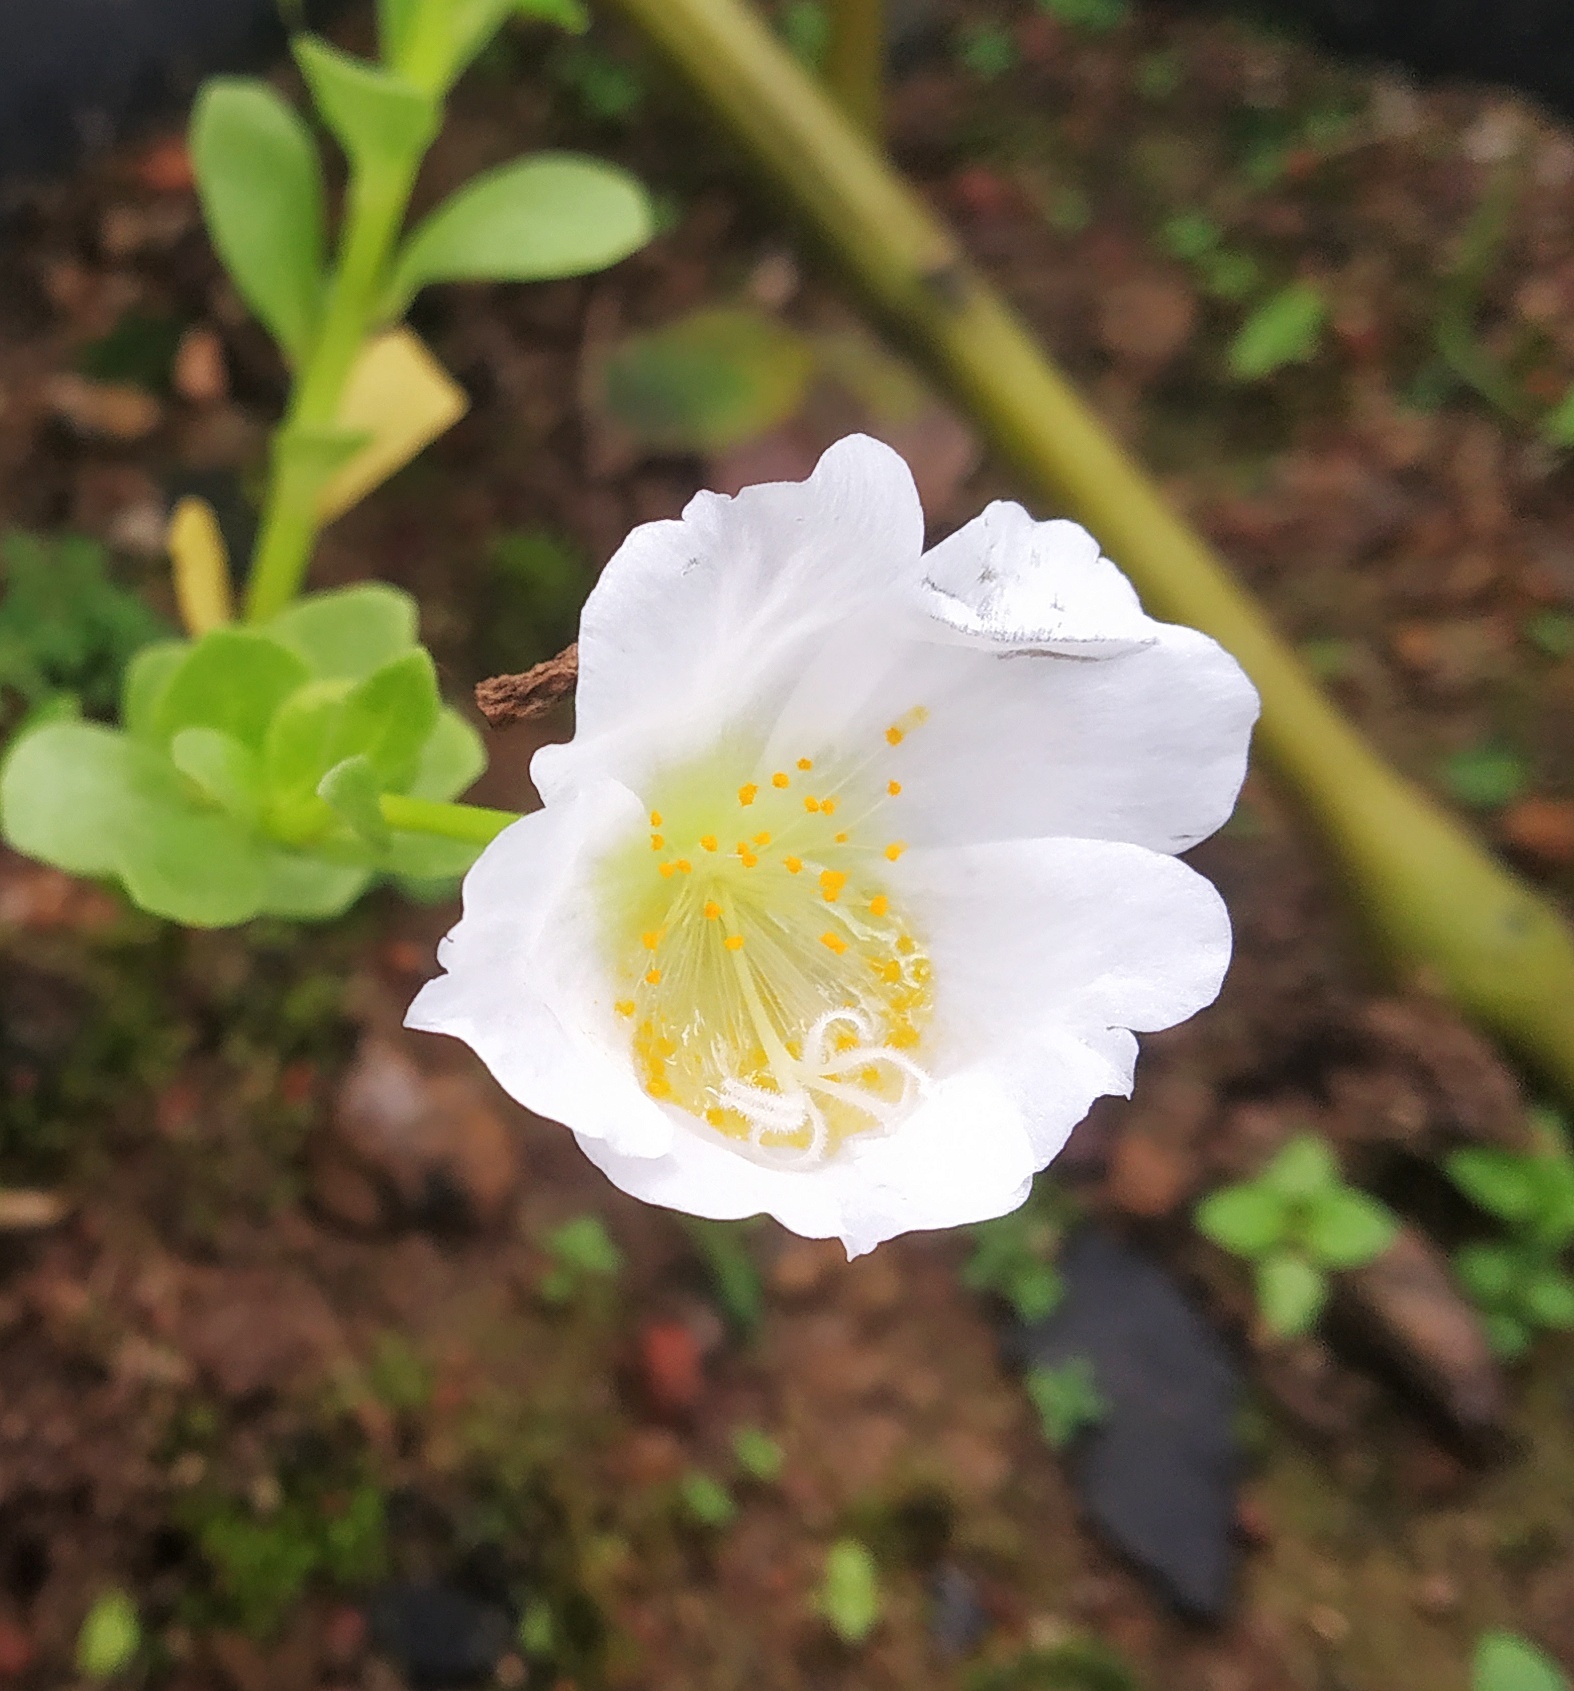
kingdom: Plantae
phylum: Tracheophyta
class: Magnoliopsida
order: Caryophyllales
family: Portulacaceae
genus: Portulaca
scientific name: Portulaca umbraticola
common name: Wingpod purslane
